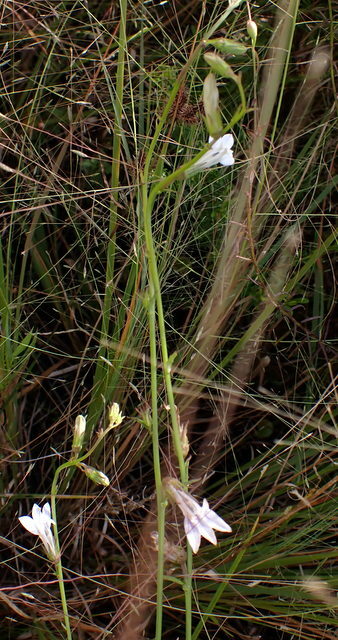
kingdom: Plantae
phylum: Tracheophyta
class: Magnoliopsida
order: Asterales
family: Campanulaceae
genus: Lobelia
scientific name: Lobelia floridana
